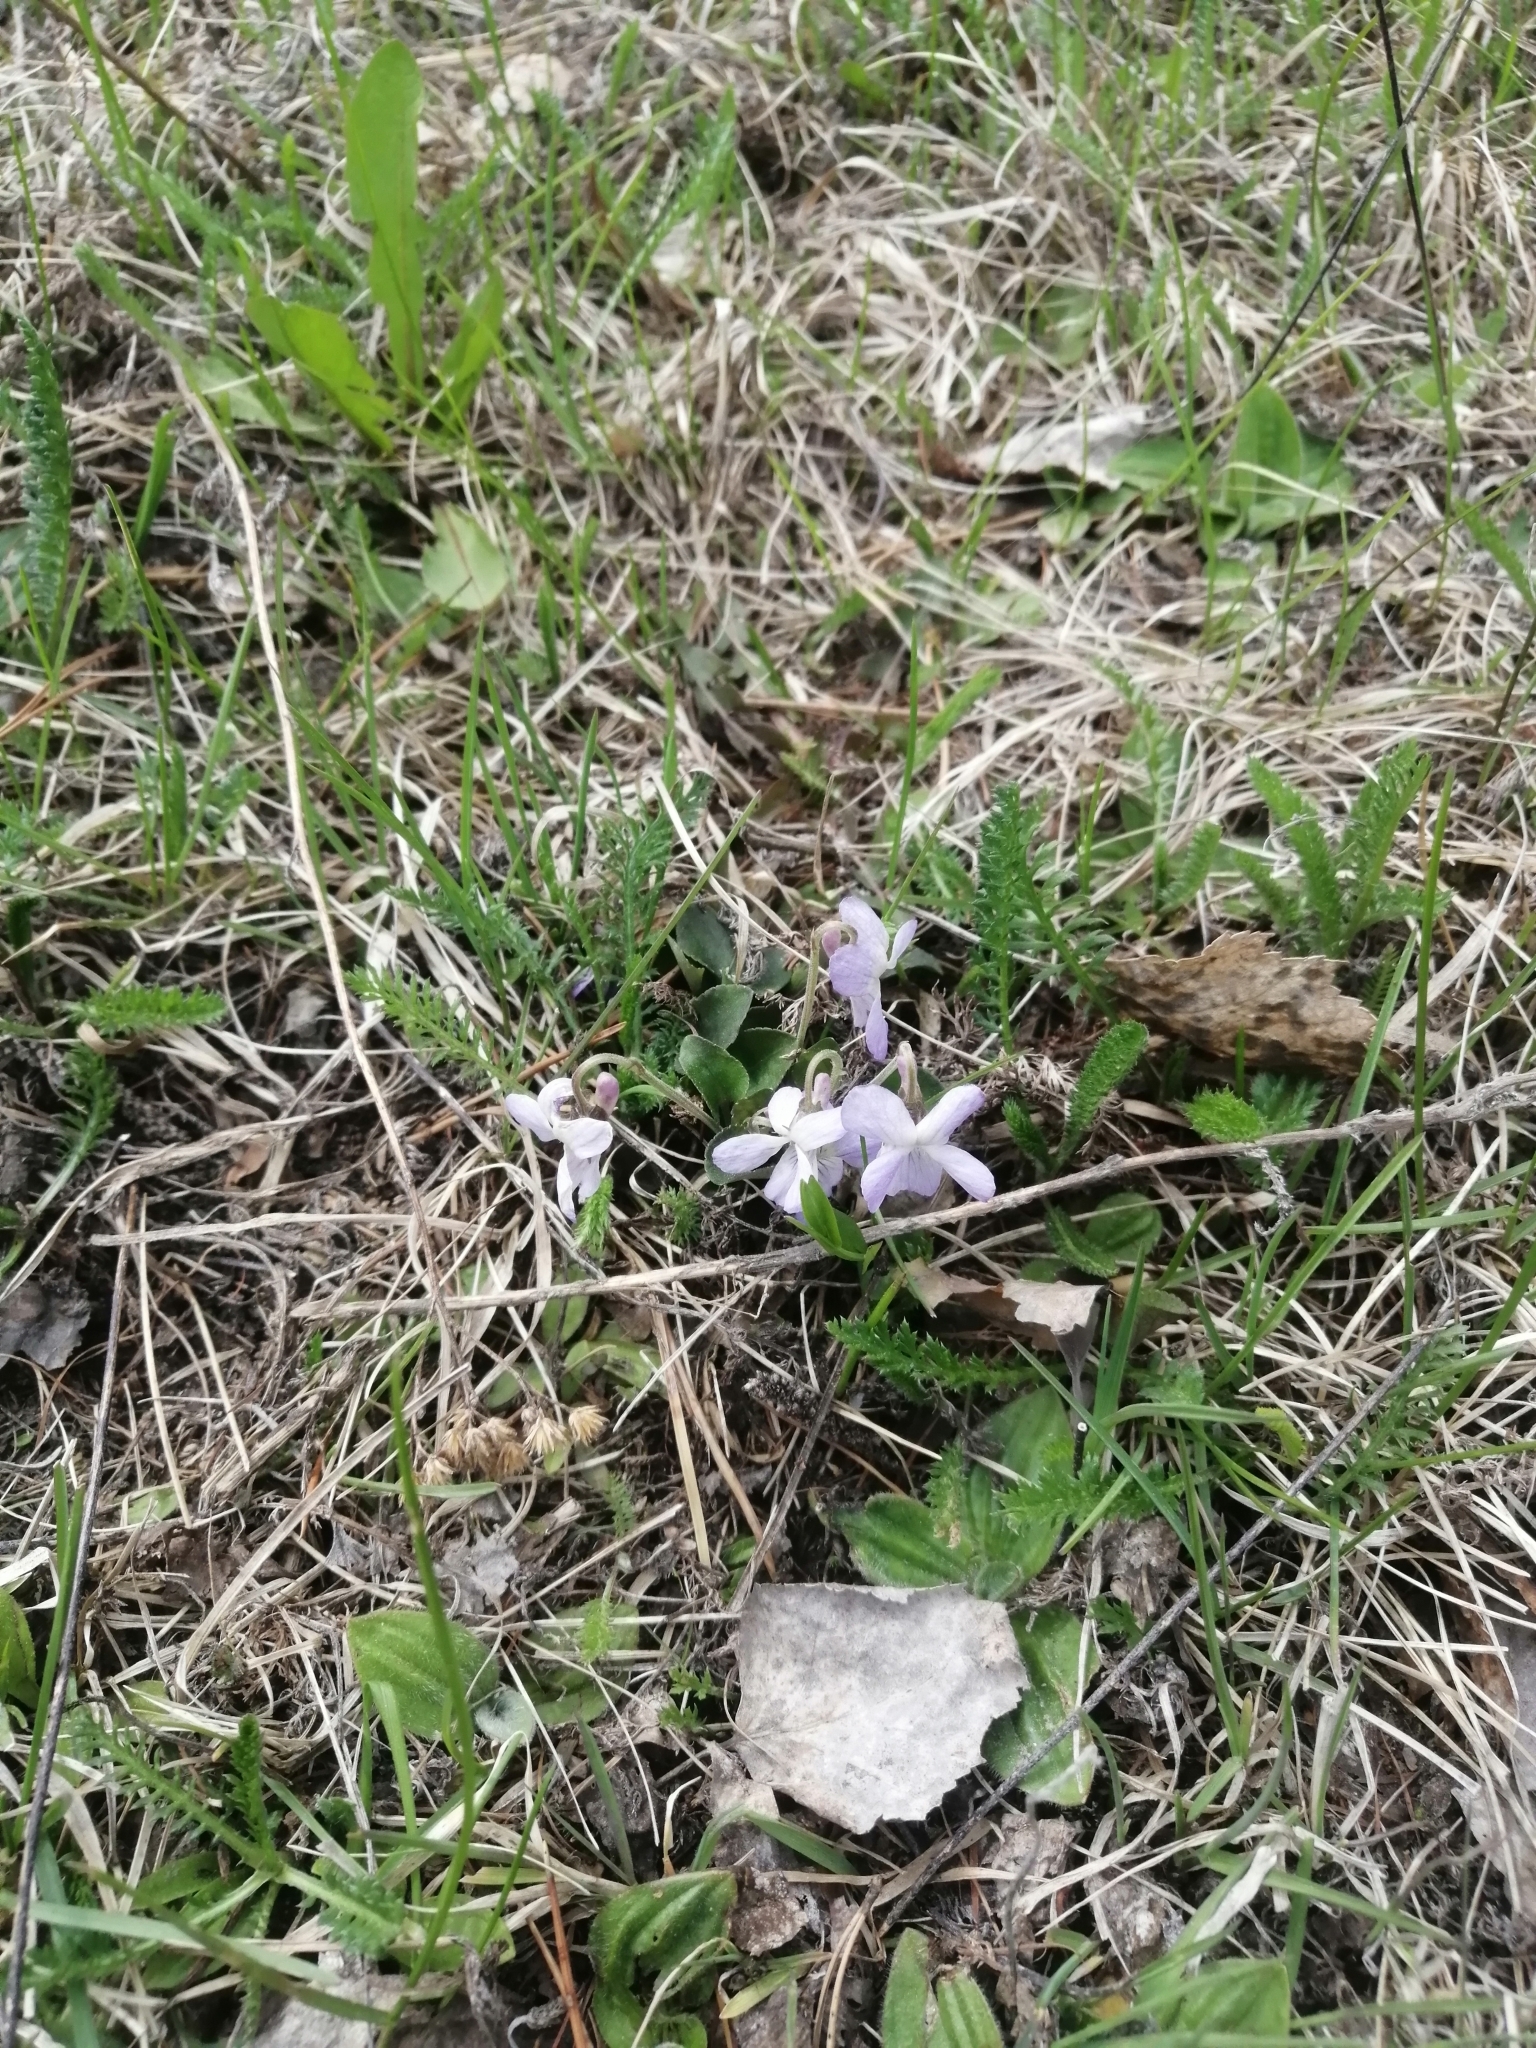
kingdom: Plantae
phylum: Tracheophyta
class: Magnoliopsida
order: Malpighiales
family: Violaceae
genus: Viola
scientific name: Viola selkirkii
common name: Selkirk's violet
